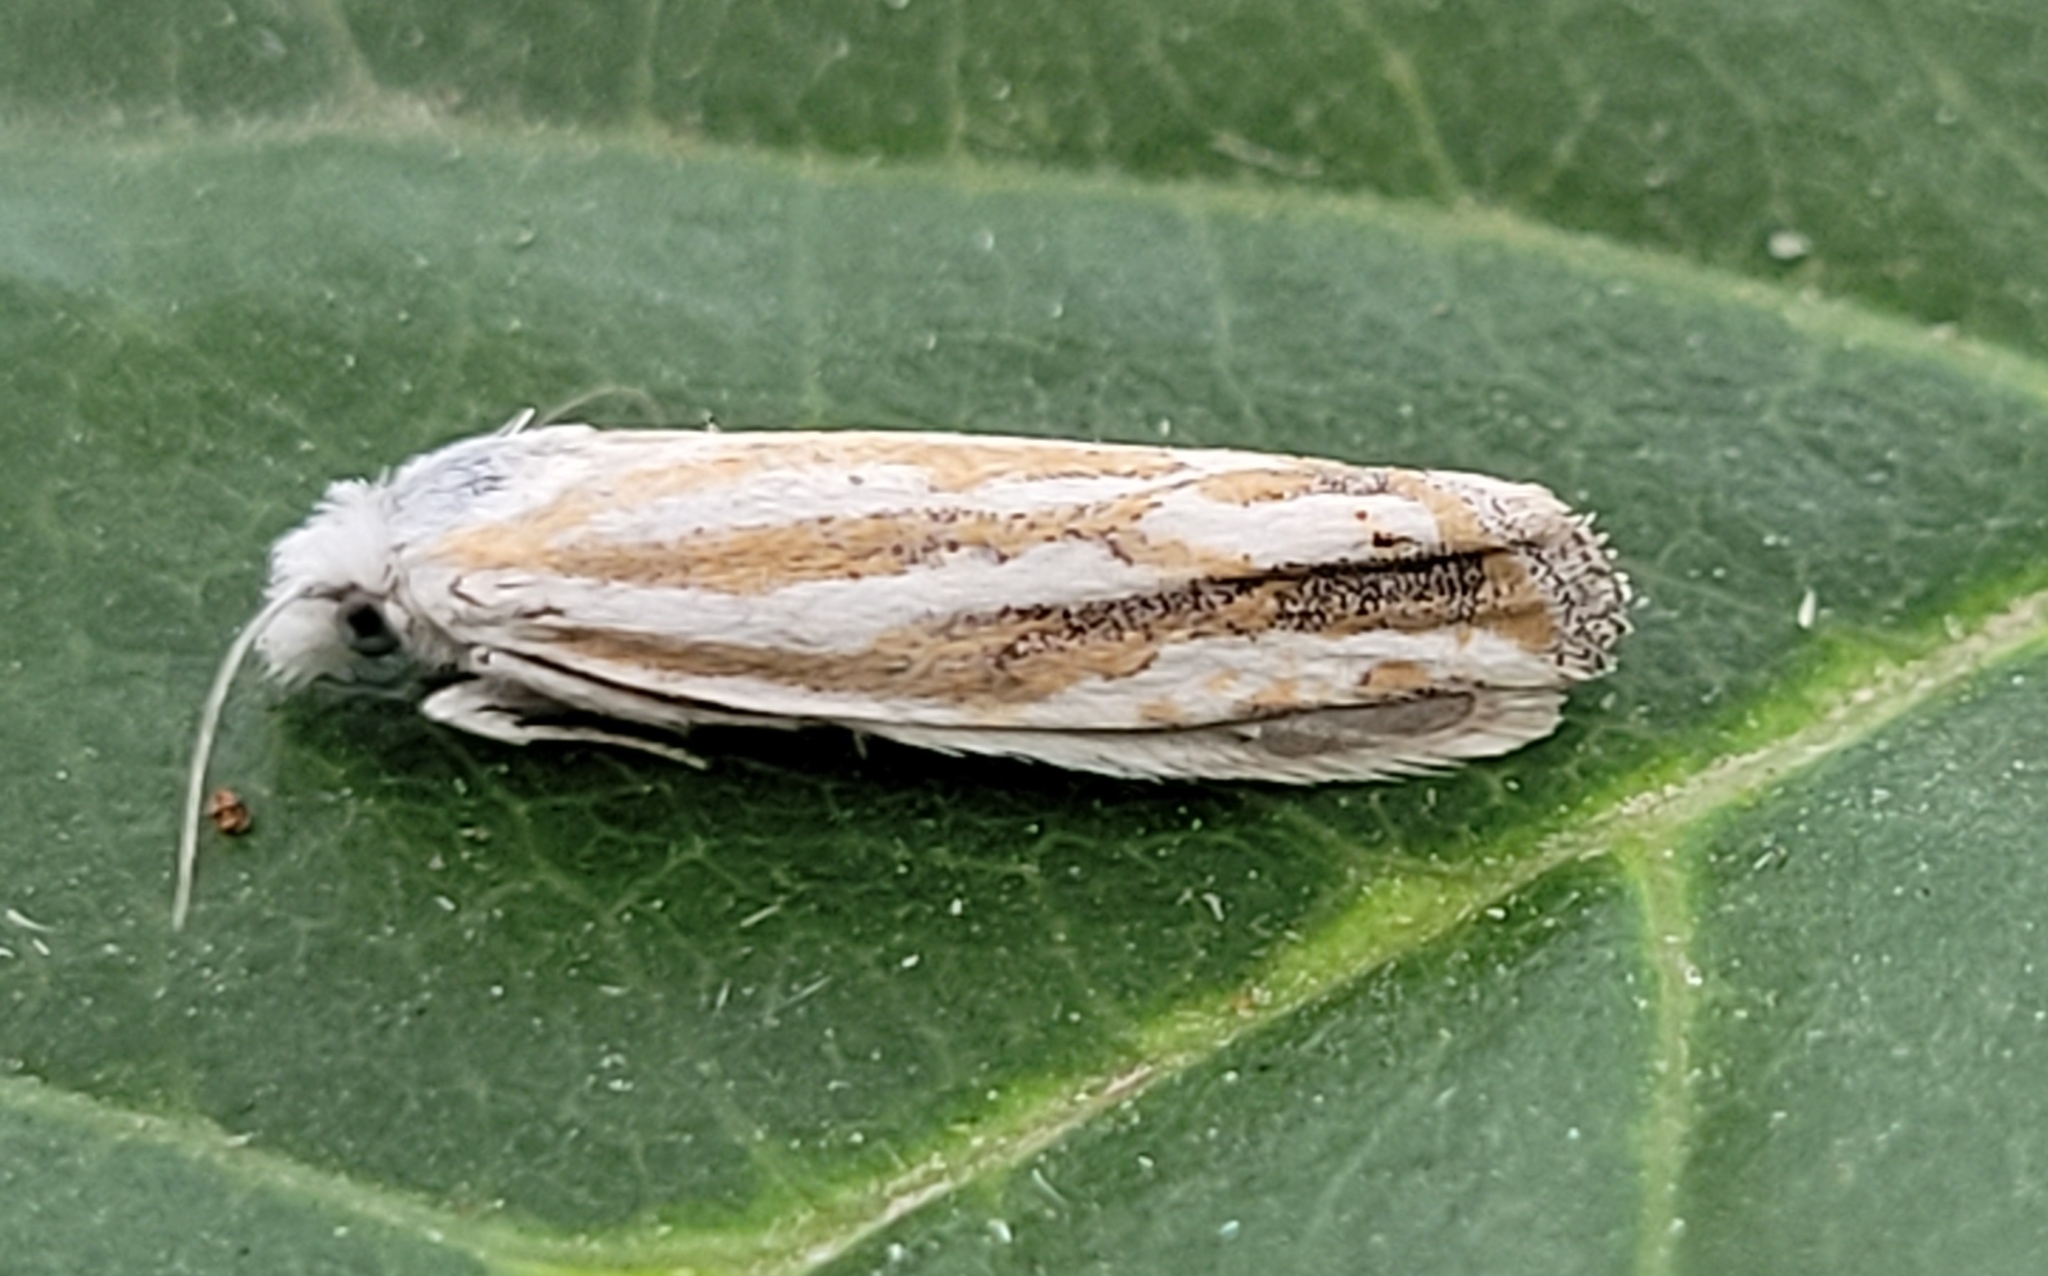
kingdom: Animalia
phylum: Arthropoda
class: Insecta
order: Lepidoptera
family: Tortricidae
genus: Pelochrista
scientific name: Pelochrista morrisoni
